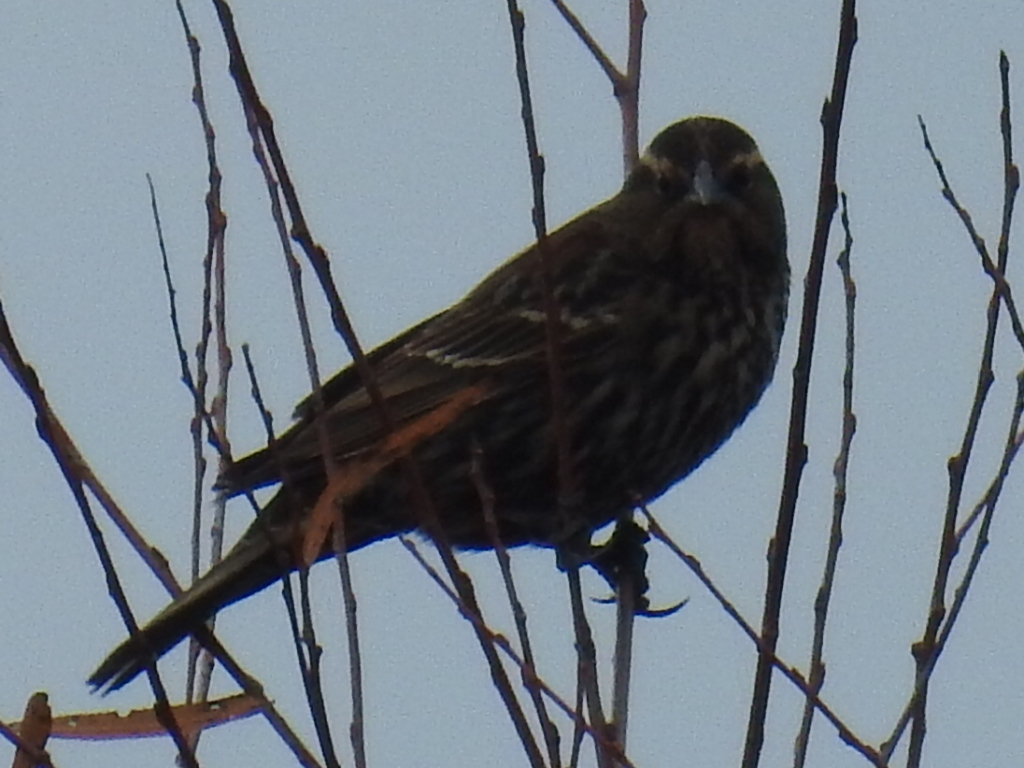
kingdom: Animalia
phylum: Chordata
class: Aves
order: Passeriformes
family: Icteridae
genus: Agelaius
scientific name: Agelaius phoeniceus
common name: Red-winged blackbird
